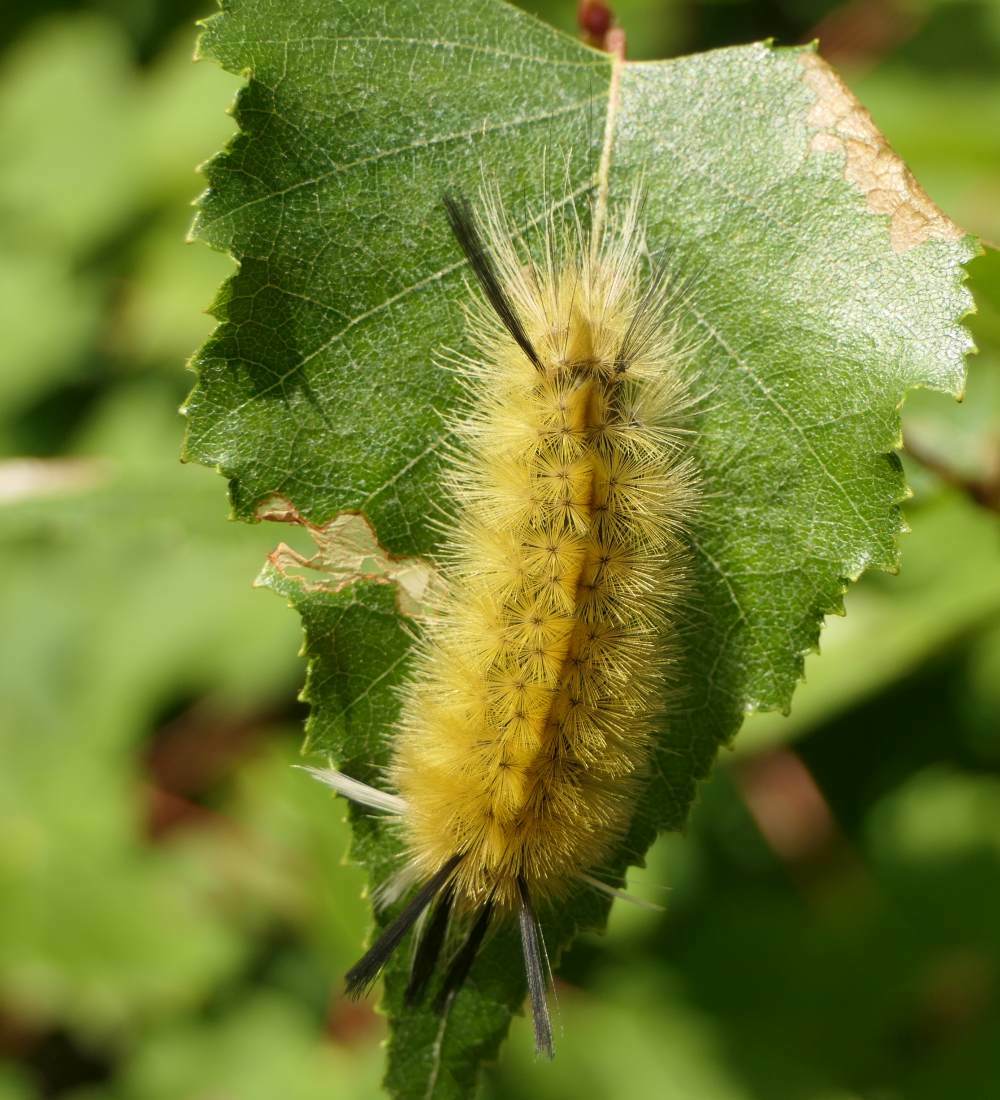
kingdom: Animalia
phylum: Arthropoda
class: Insecta
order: Lepidoptera
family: Erebidae
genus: Halysidota
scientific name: Halysidota tessellaris
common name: Banded tussock moth
